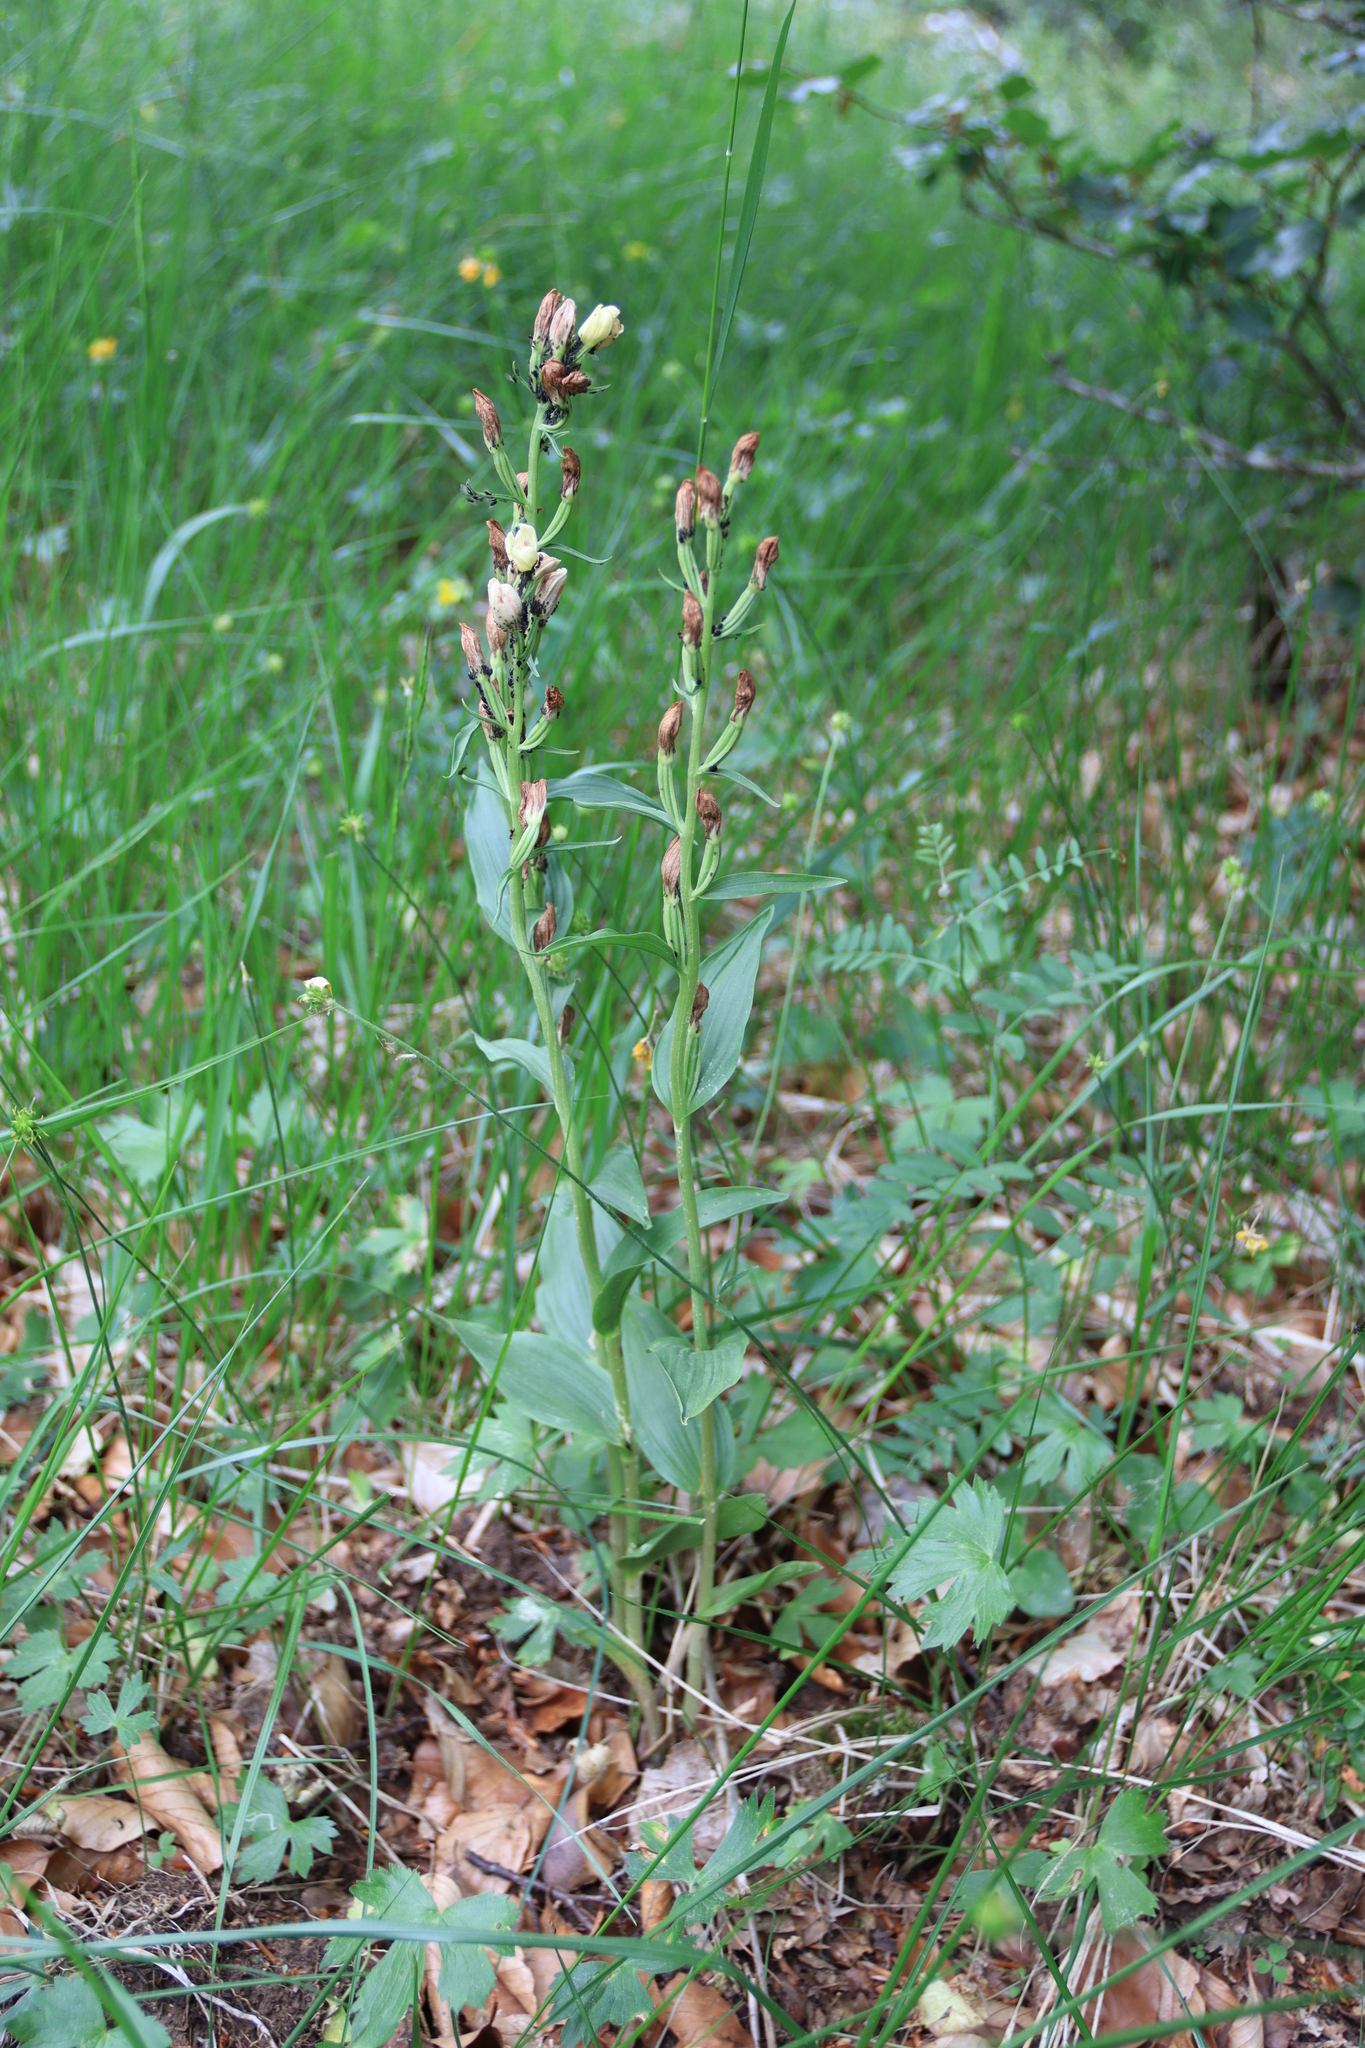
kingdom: Plantae
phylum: Tracheophyta
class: Liliopsida
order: Asparagales
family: Orchidaceae
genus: Cephalanthera
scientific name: Cephalanthera damasonium
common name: White helleborine
